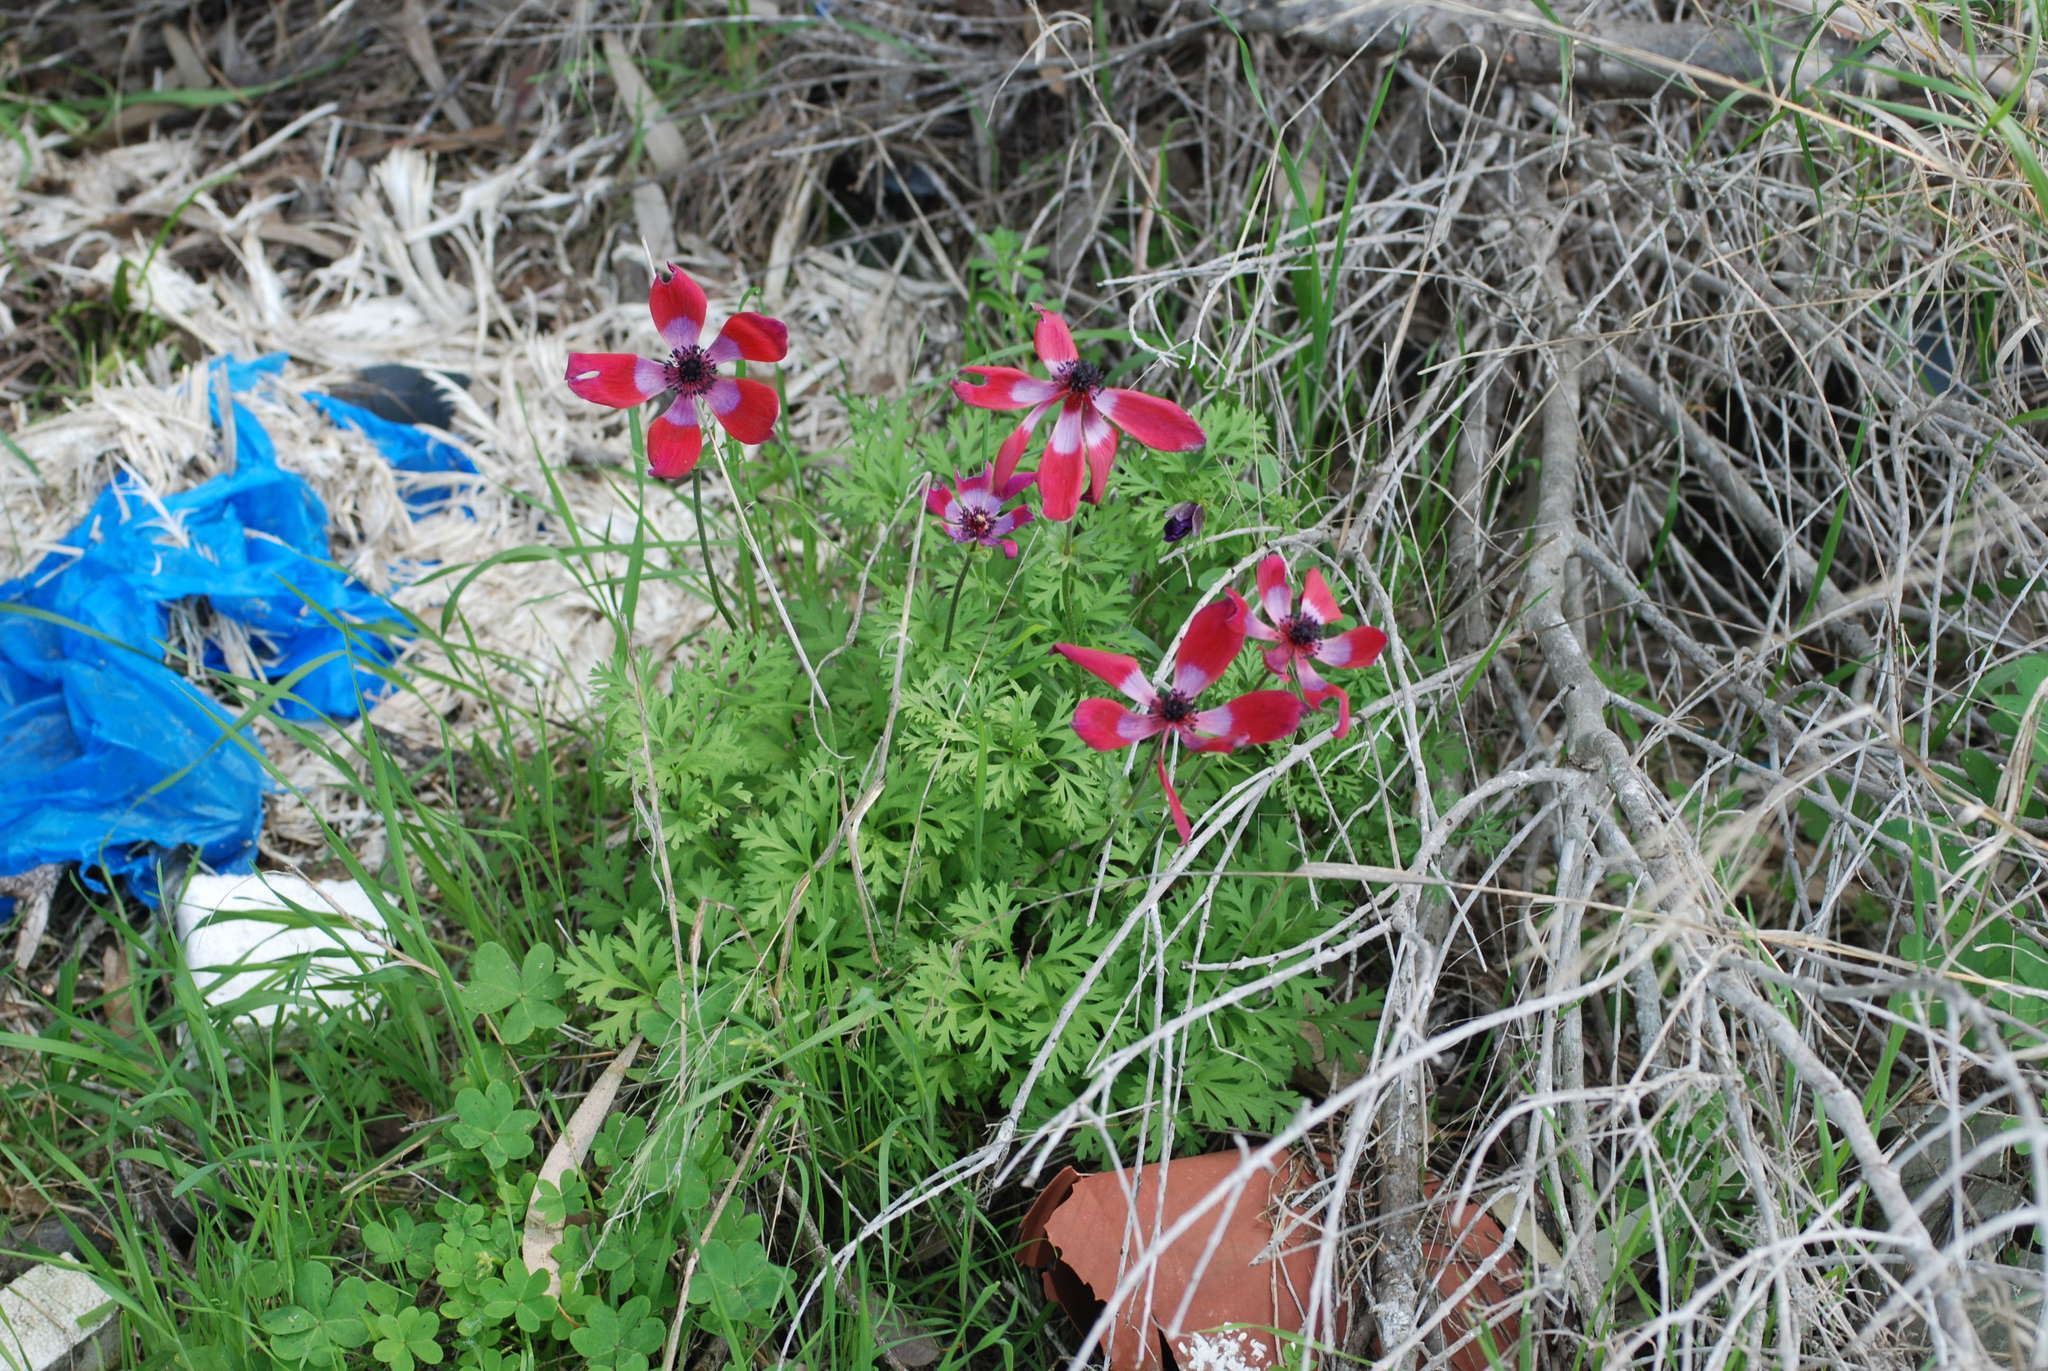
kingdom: Plantae
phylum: Tracheophyta
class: Magnoliopsida
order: Ranunculales
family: Ranunculaceae
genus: Anemone
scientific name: Anemone coronaria
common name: Poppy anemone
